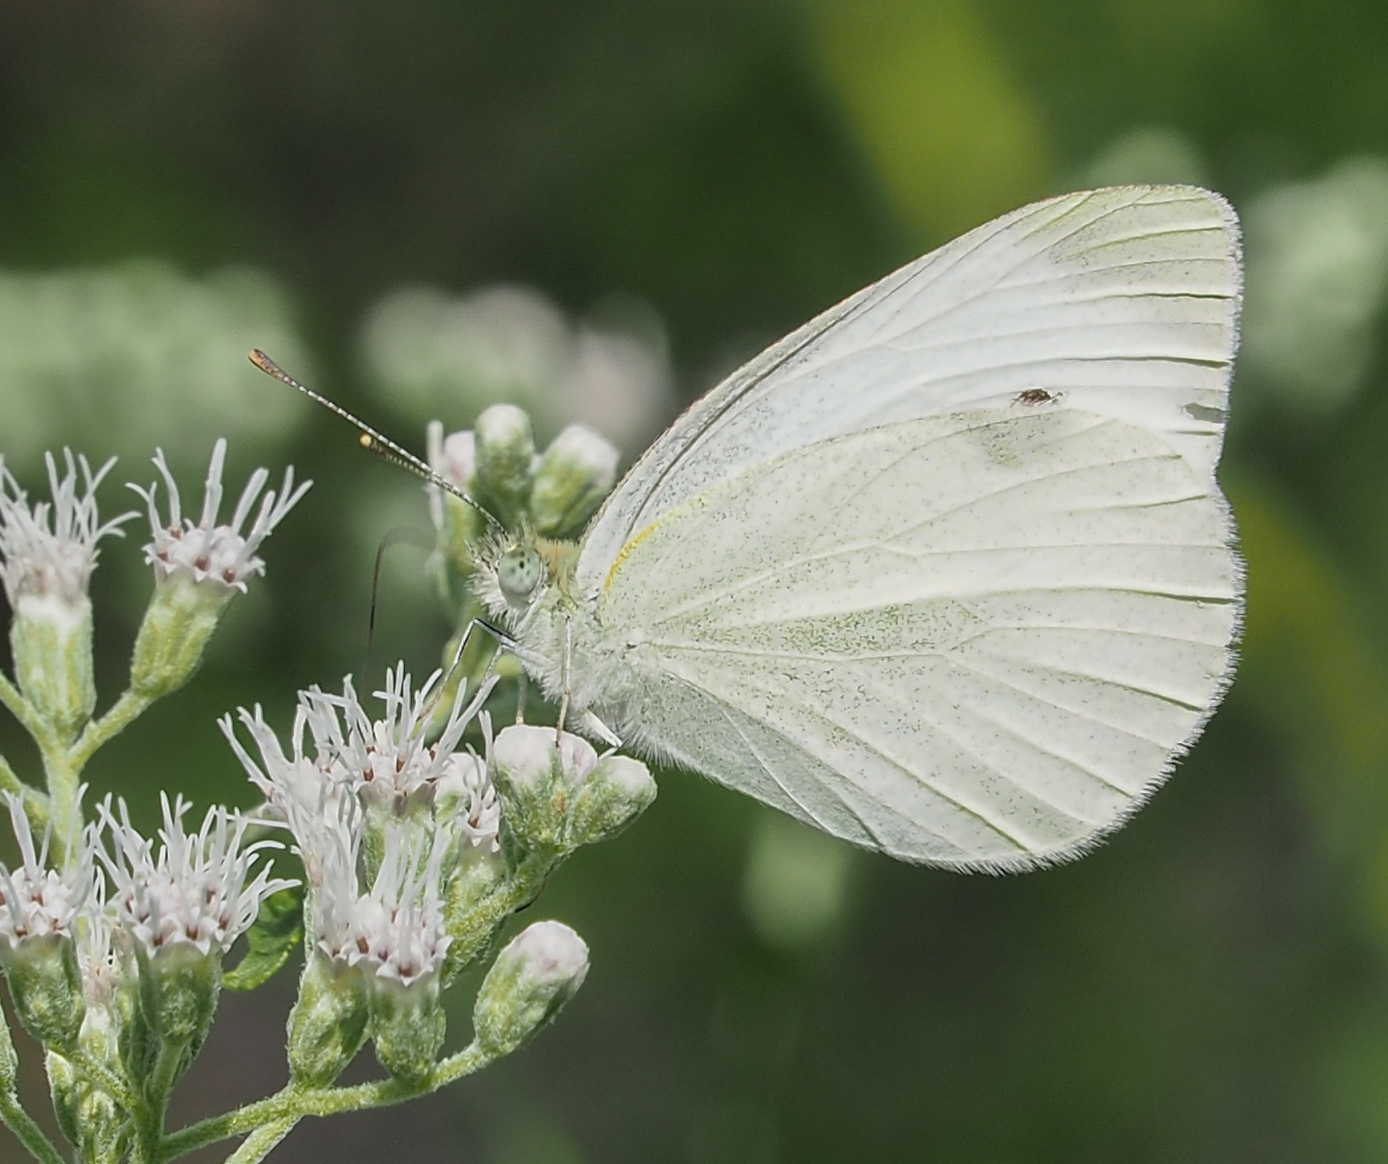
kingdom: Animalia
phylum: Arthropoda
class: Insecta
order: Lepidoptera
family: Pieridae
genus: Pieris
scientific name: Pieris rapae
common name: Small white
